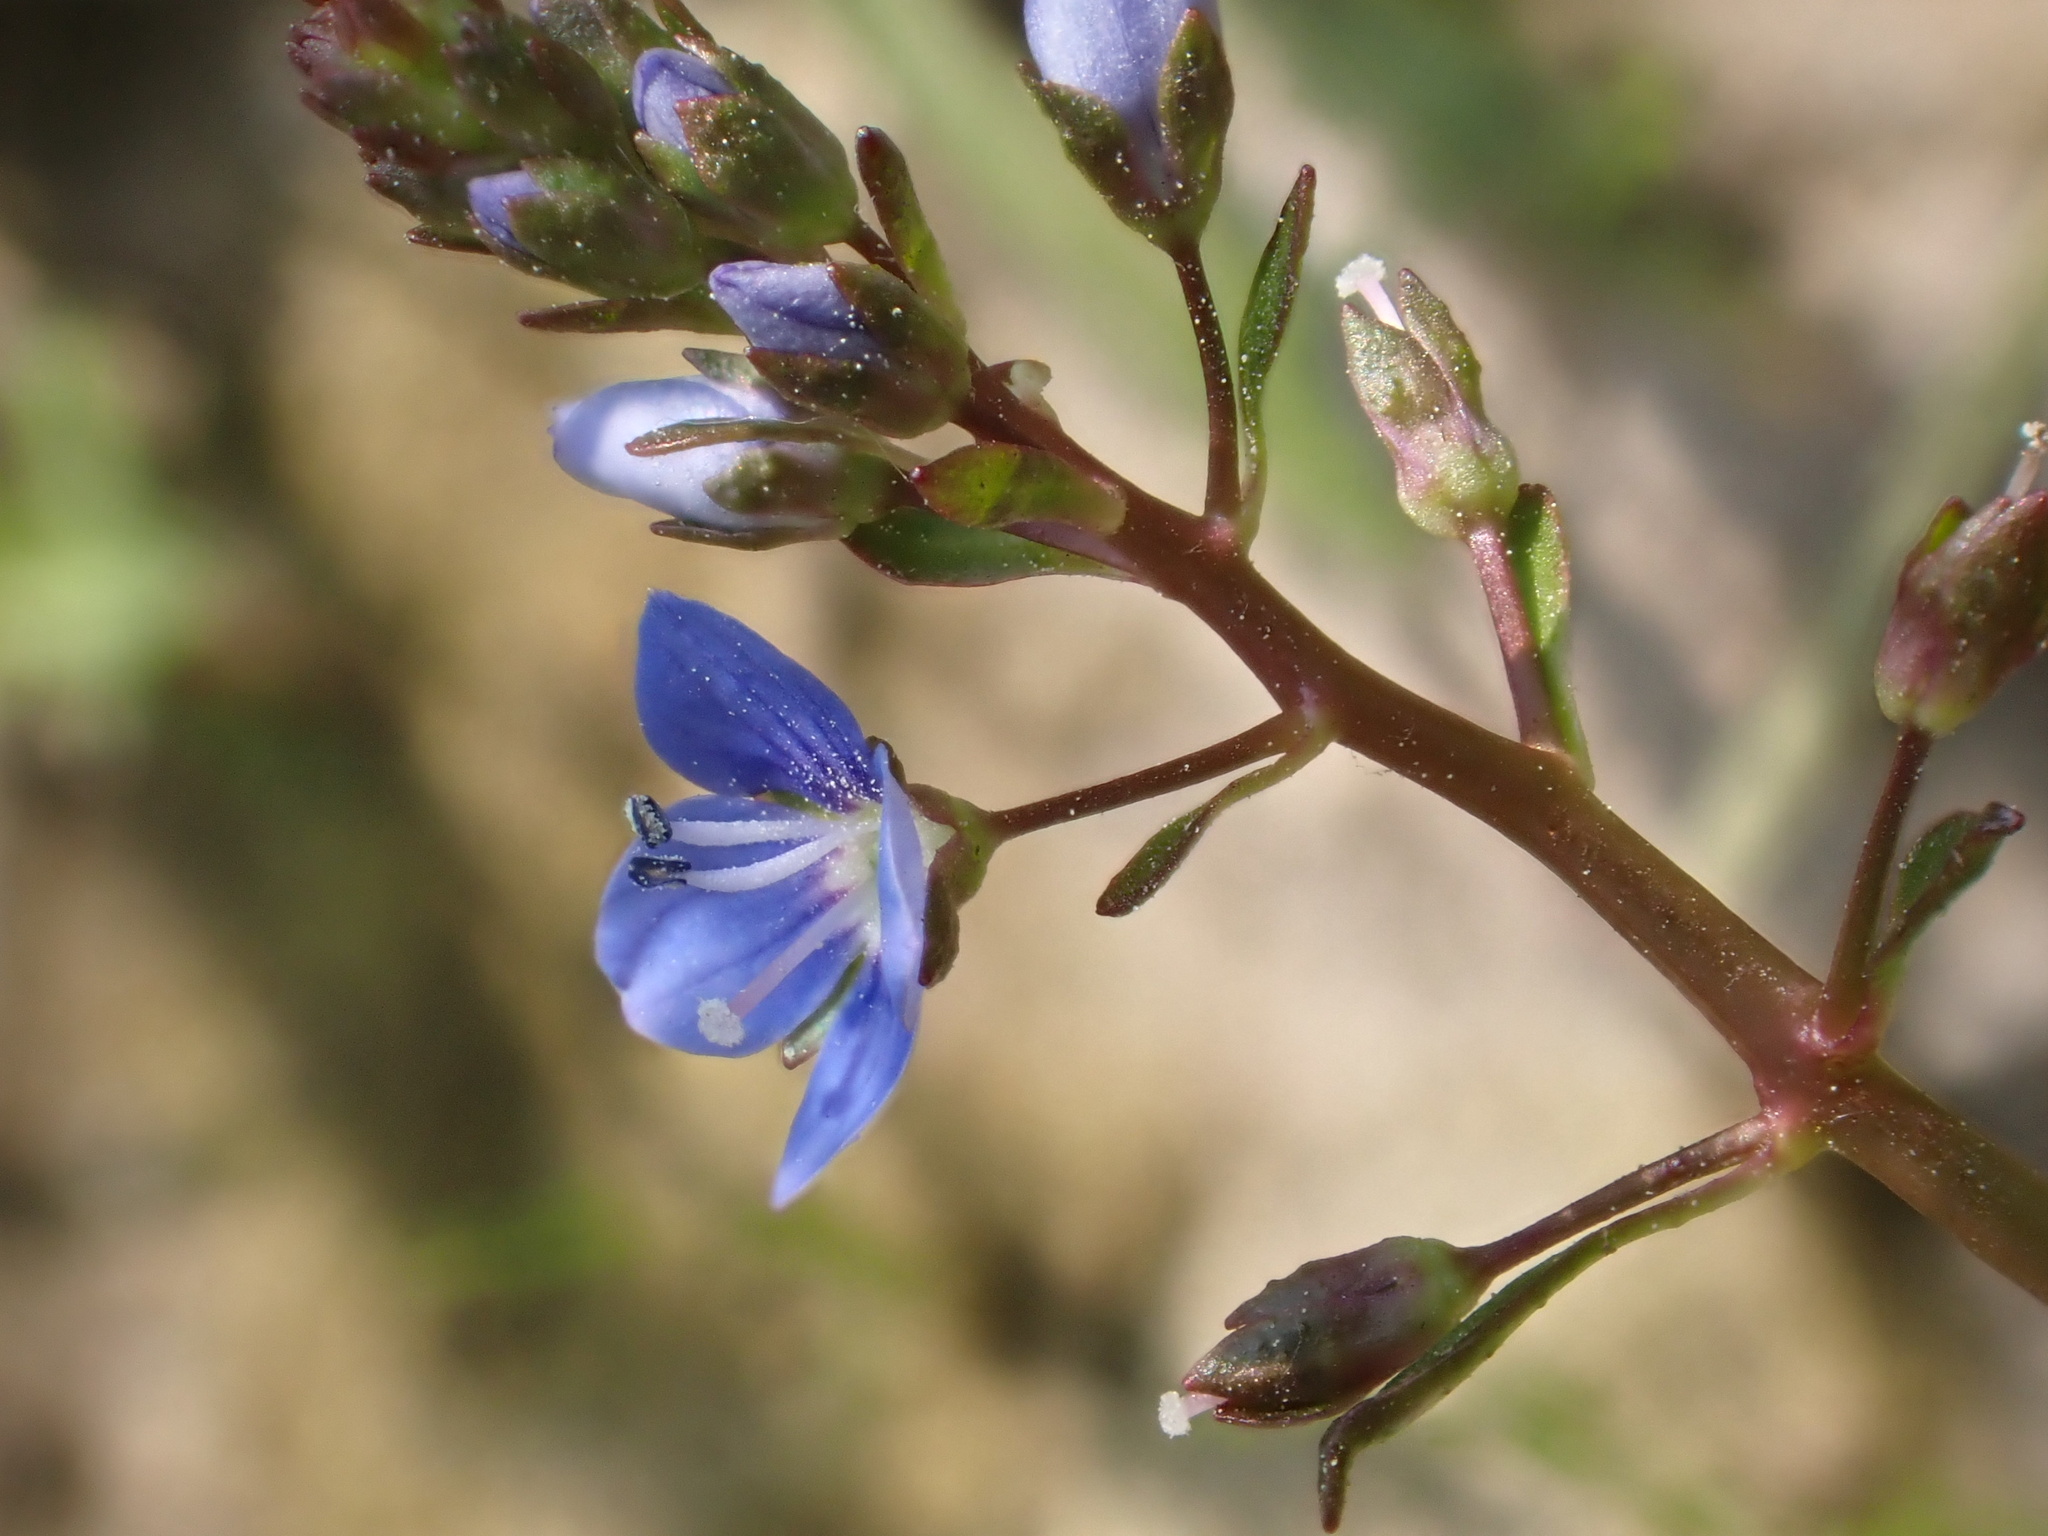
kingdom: Plantae
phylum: Tracheophyta
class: Magnoliopsida
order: Lamiales
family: Plantaginaceae
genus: Veronica
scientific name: Veronica beccabunga
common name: Brooklime
